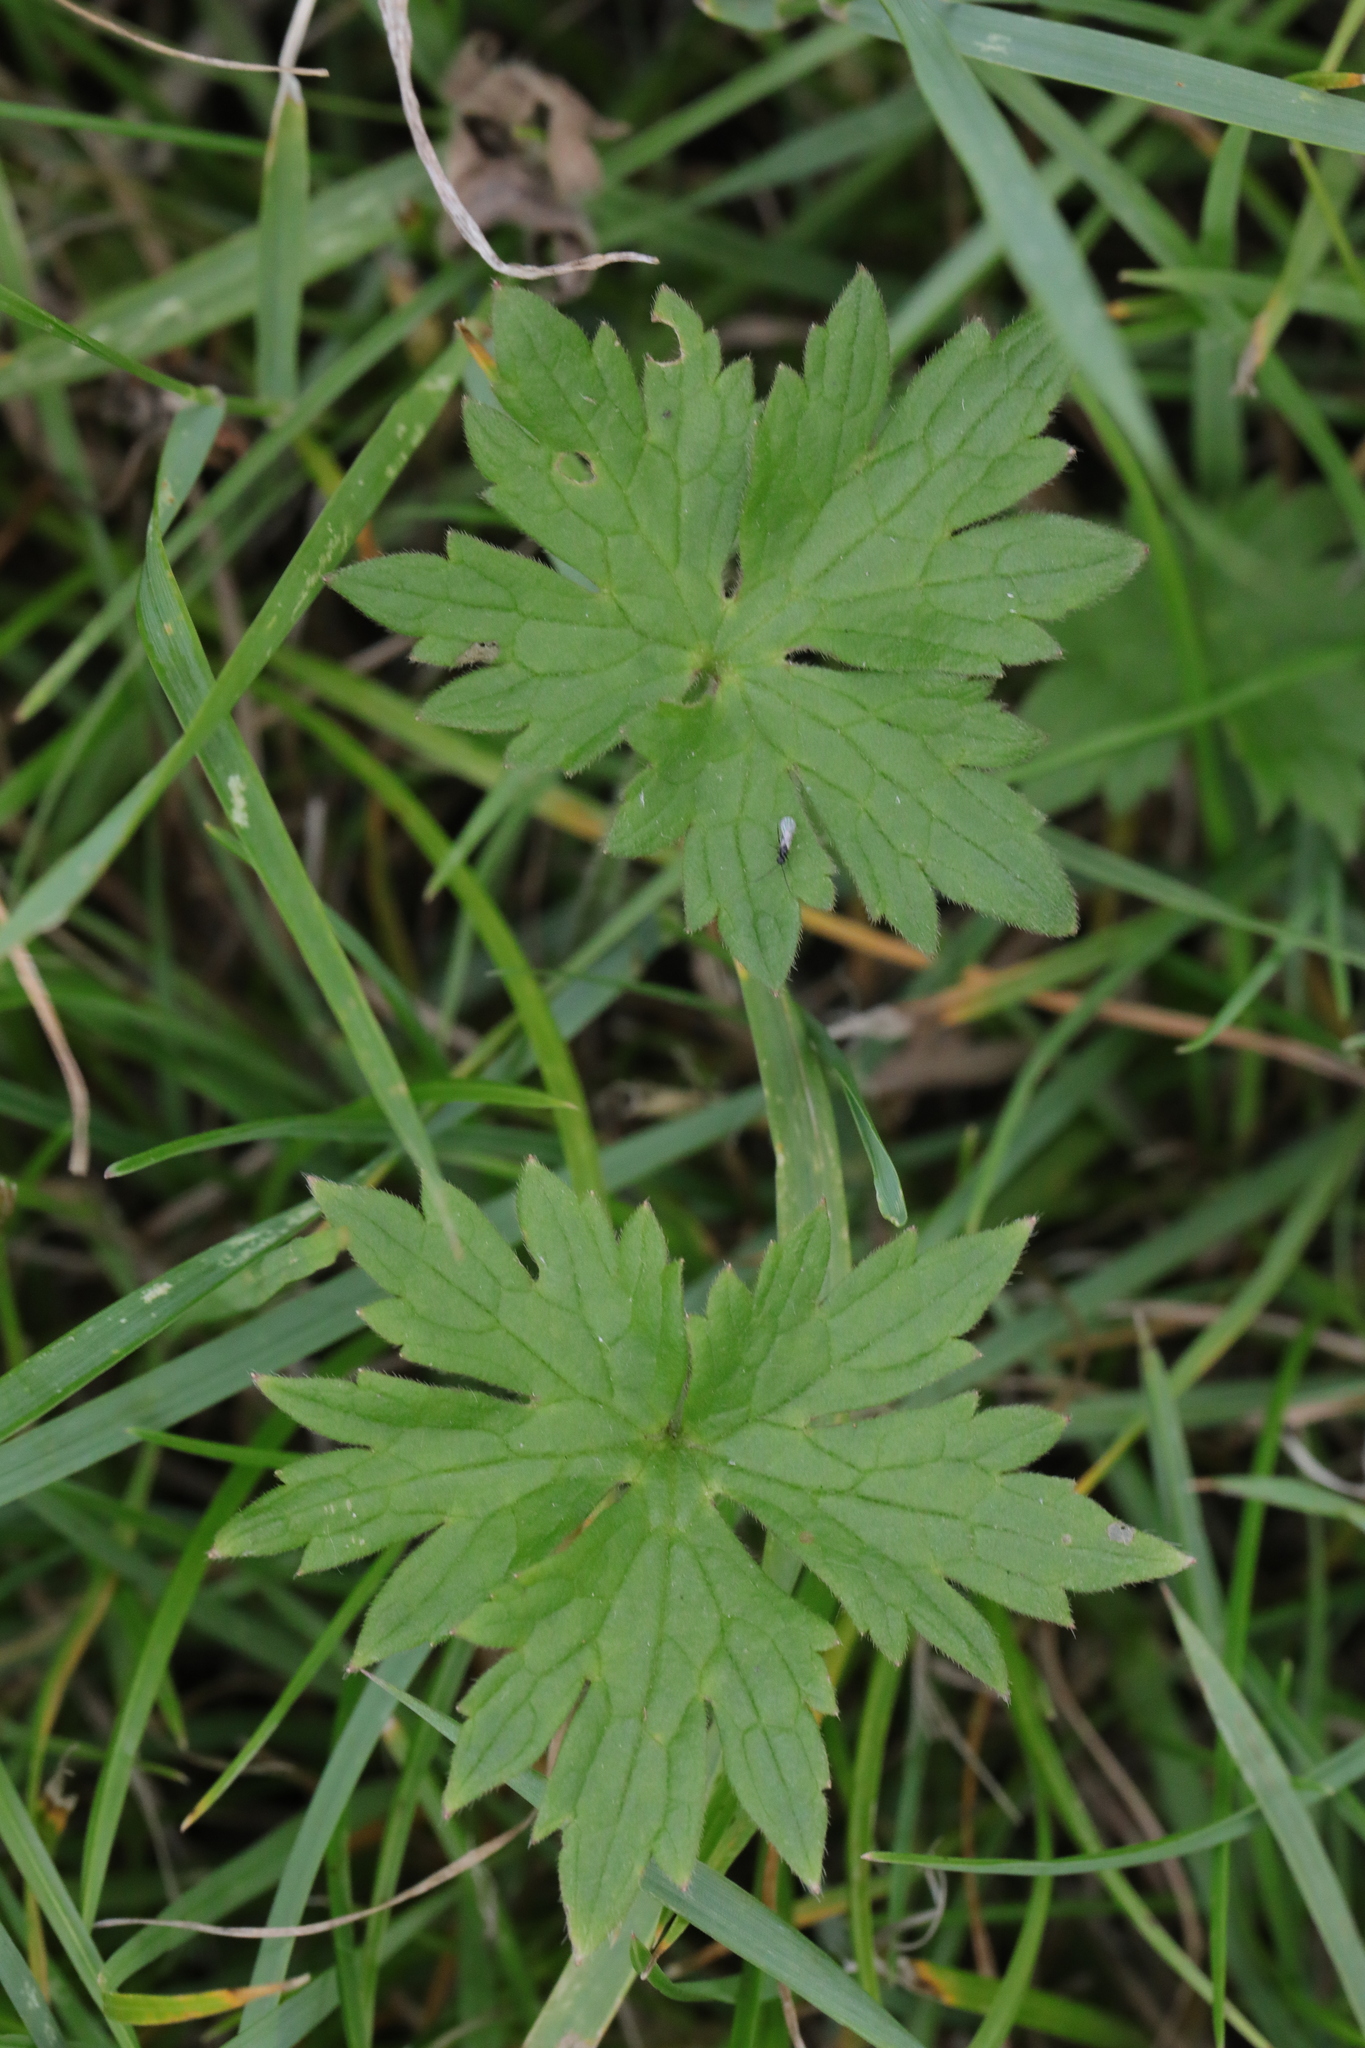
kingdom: Plantae
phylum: Tracheophyta
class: Magnoliopsida
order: Ranunculales
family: Ranunculaceae
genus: Ranunculus
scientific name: Ranunculus acris
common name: Meadow buttercup
